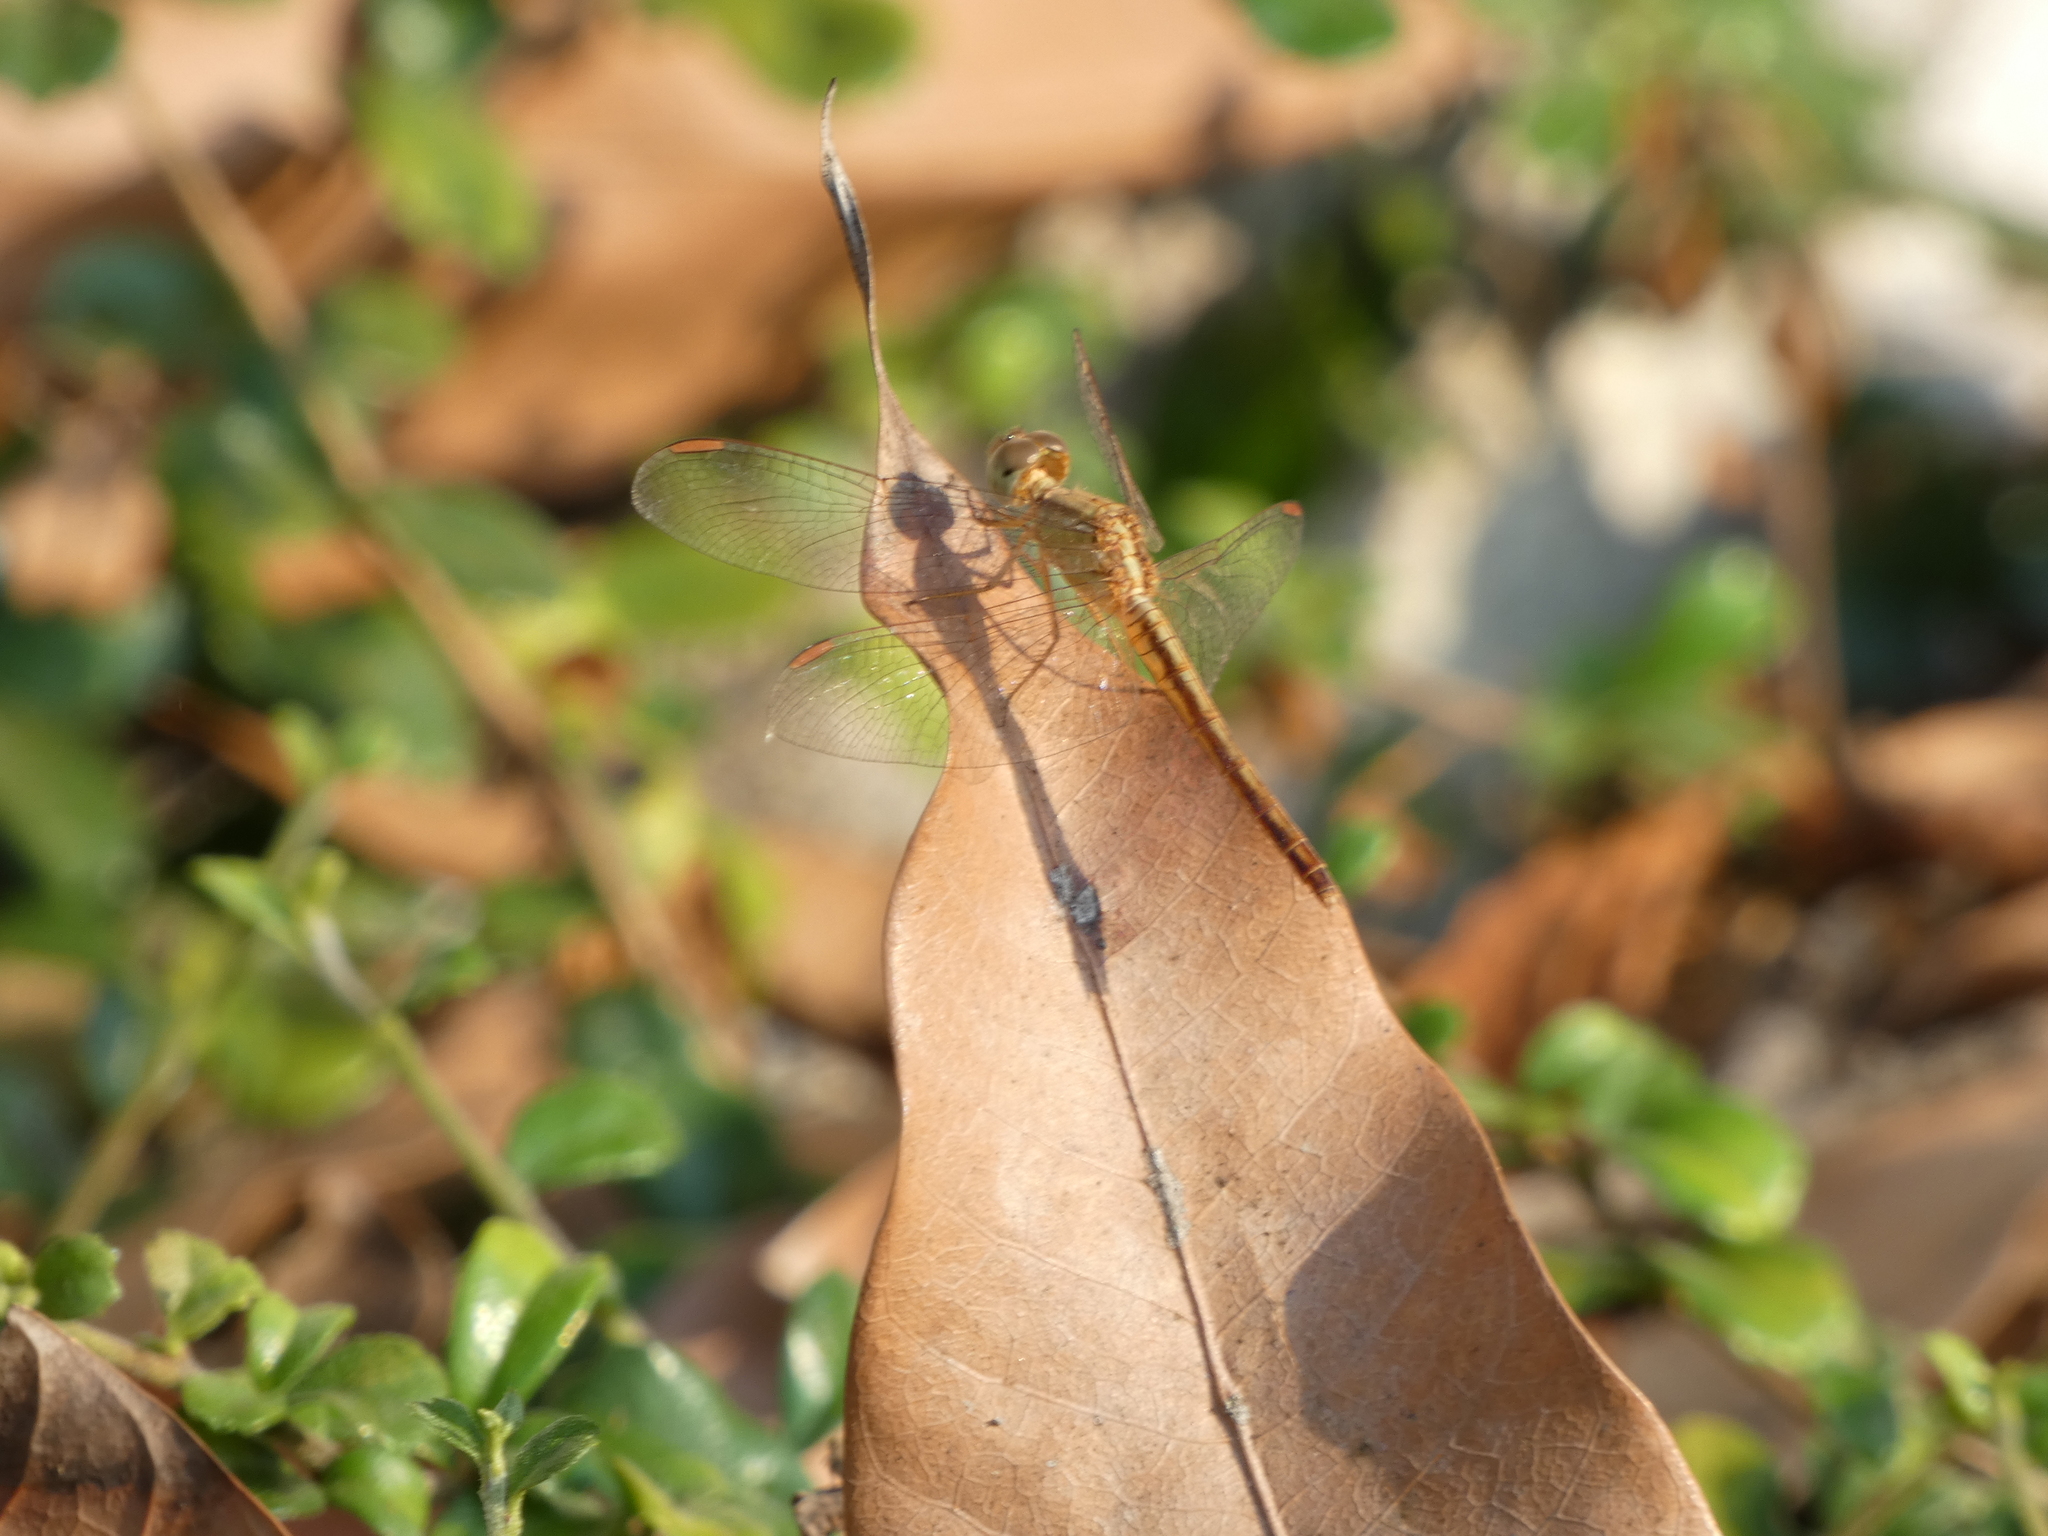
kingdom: Animalia
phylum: Arthropoda
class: Insecta
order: Odonata
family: Libellulidae
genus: Neurothemis
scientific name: Neurothemis intermedia
